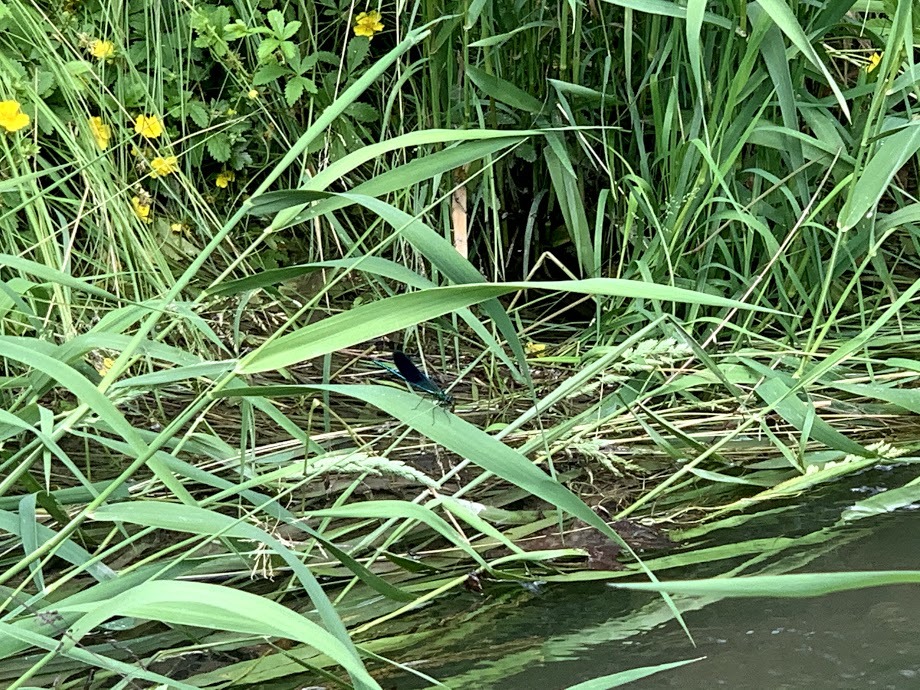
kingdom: Animalia
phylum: Arthropoda
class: Insecta
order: Odonata
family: Calopterygidae
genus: Calopteryx
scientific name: Calopteryx splendens
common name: Banded demoiselle
